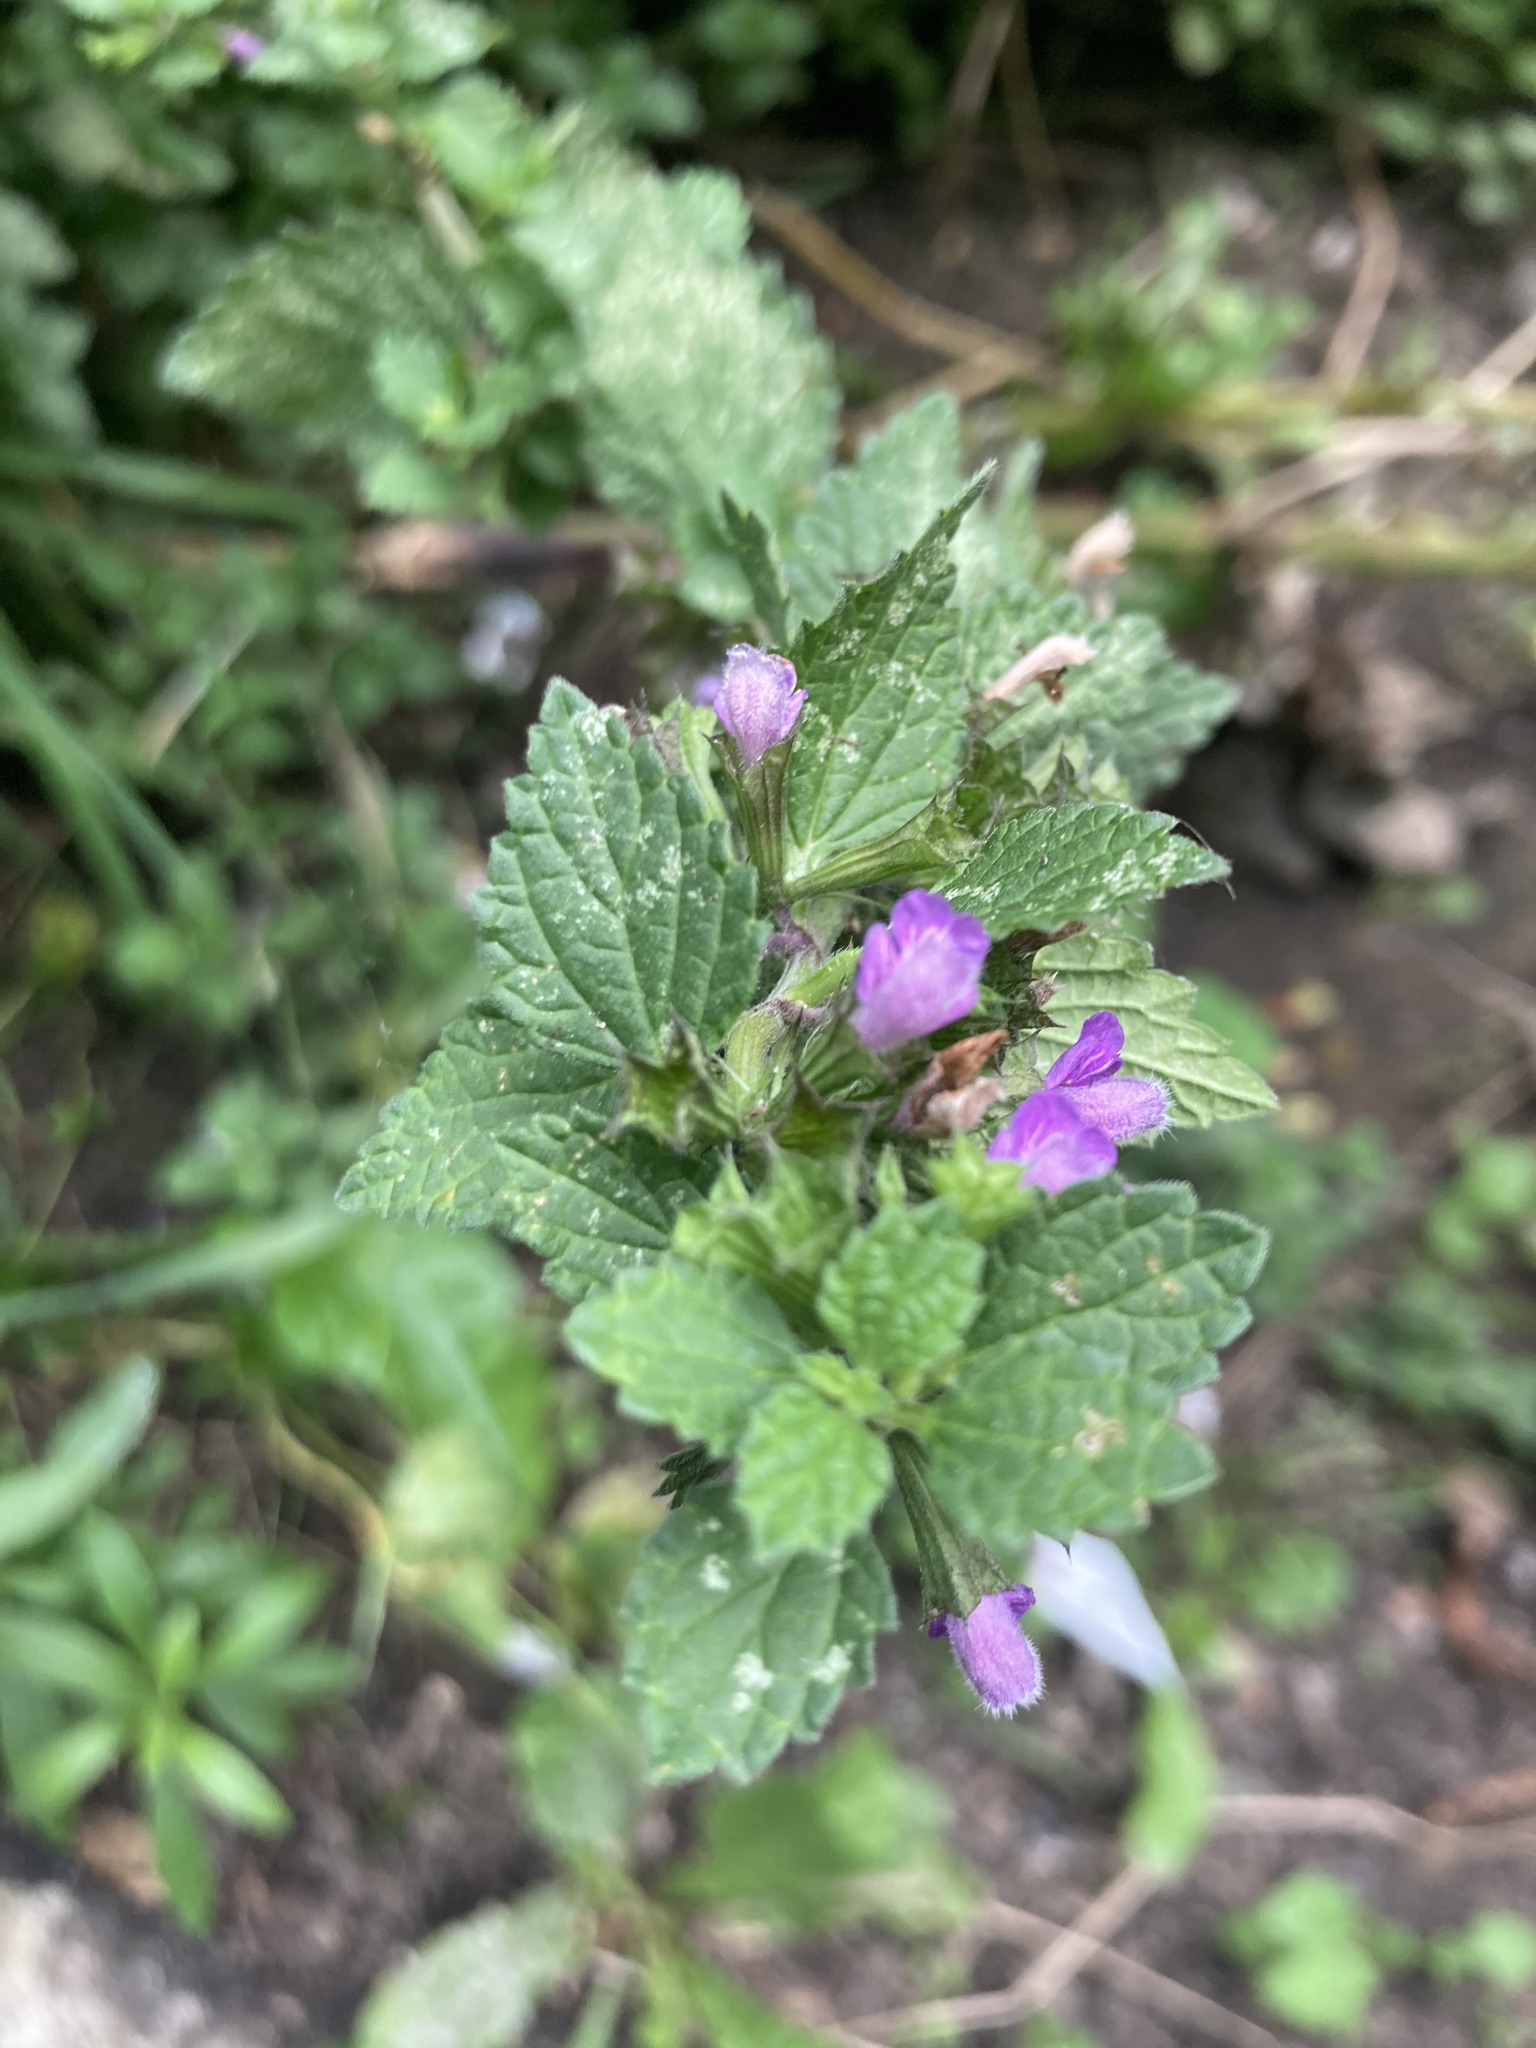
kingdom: Plantae
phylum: Tracheophyta
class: Magnoliopsida
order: Lamiales
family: Lamiaceae
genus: Ballota
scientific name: Ballota nigra
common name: Black horehound
